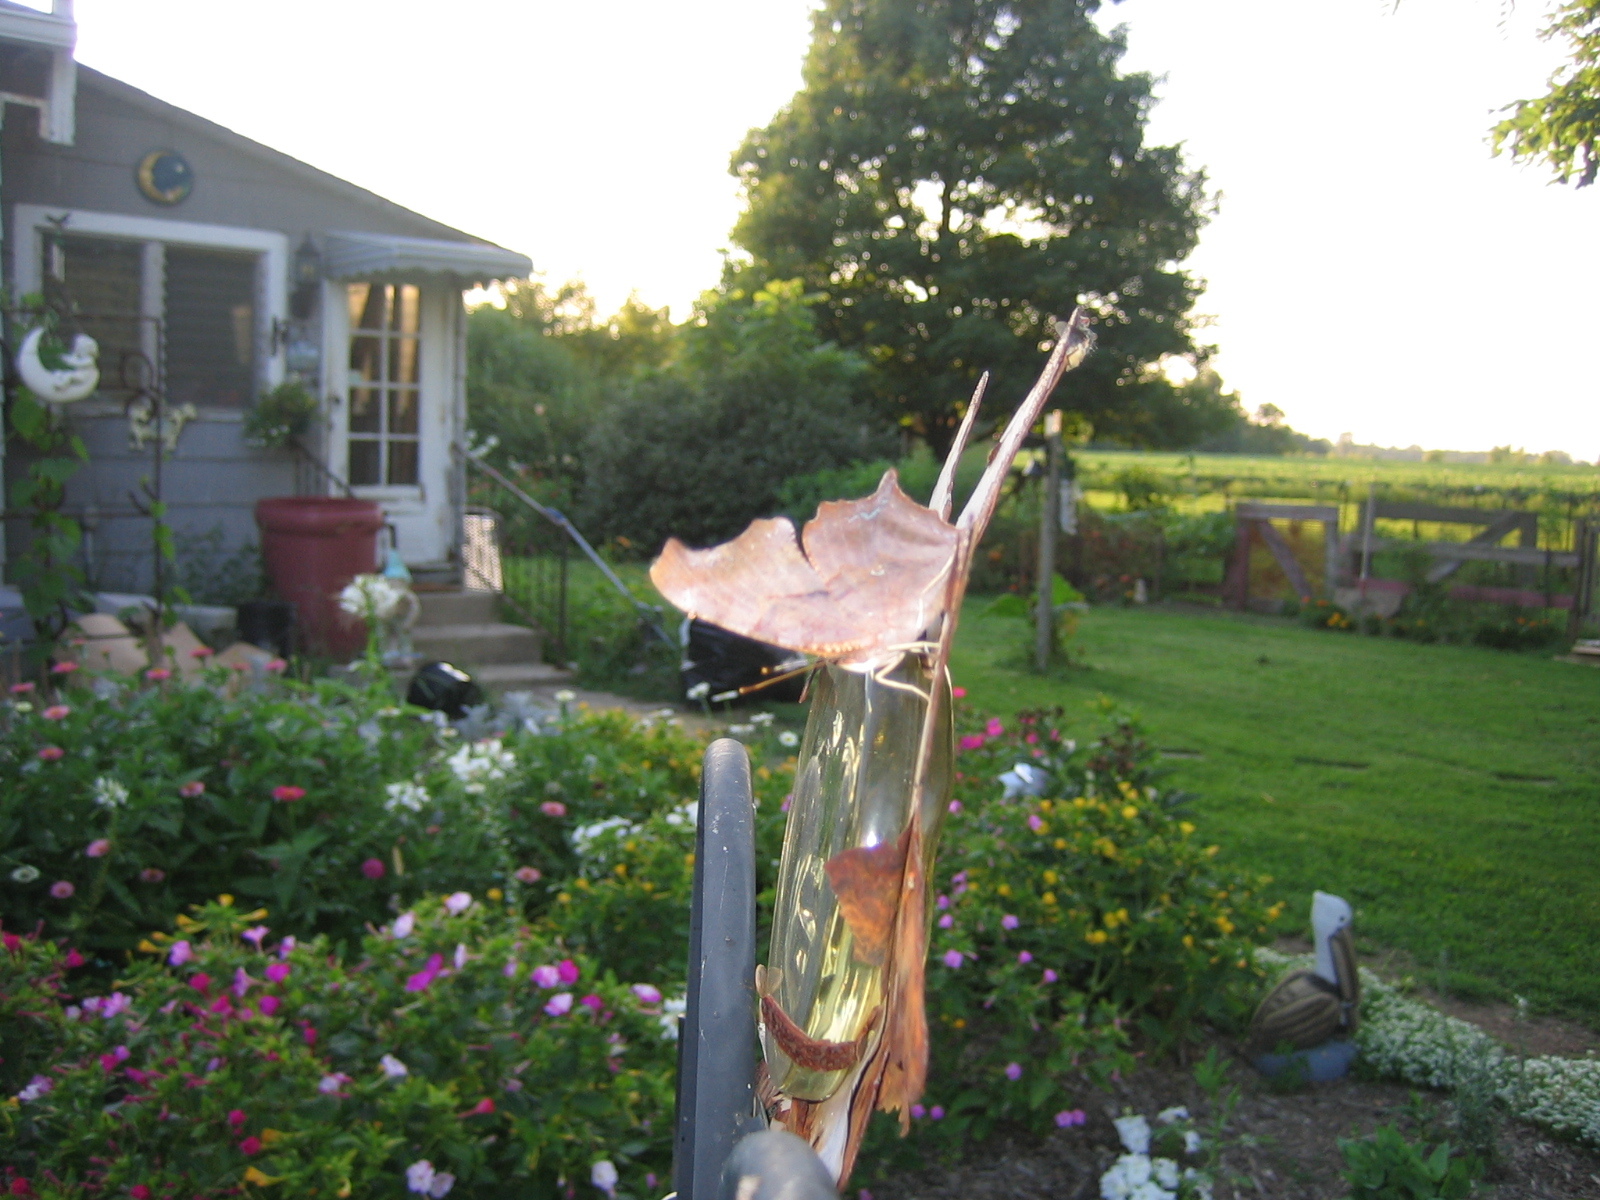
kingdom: Animalia
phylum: Arthropoda
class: Insecta
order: Lepidoptera
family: Nymphalidae
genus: Polygonia
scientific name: Polygonia interrogationis
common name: Question mark
